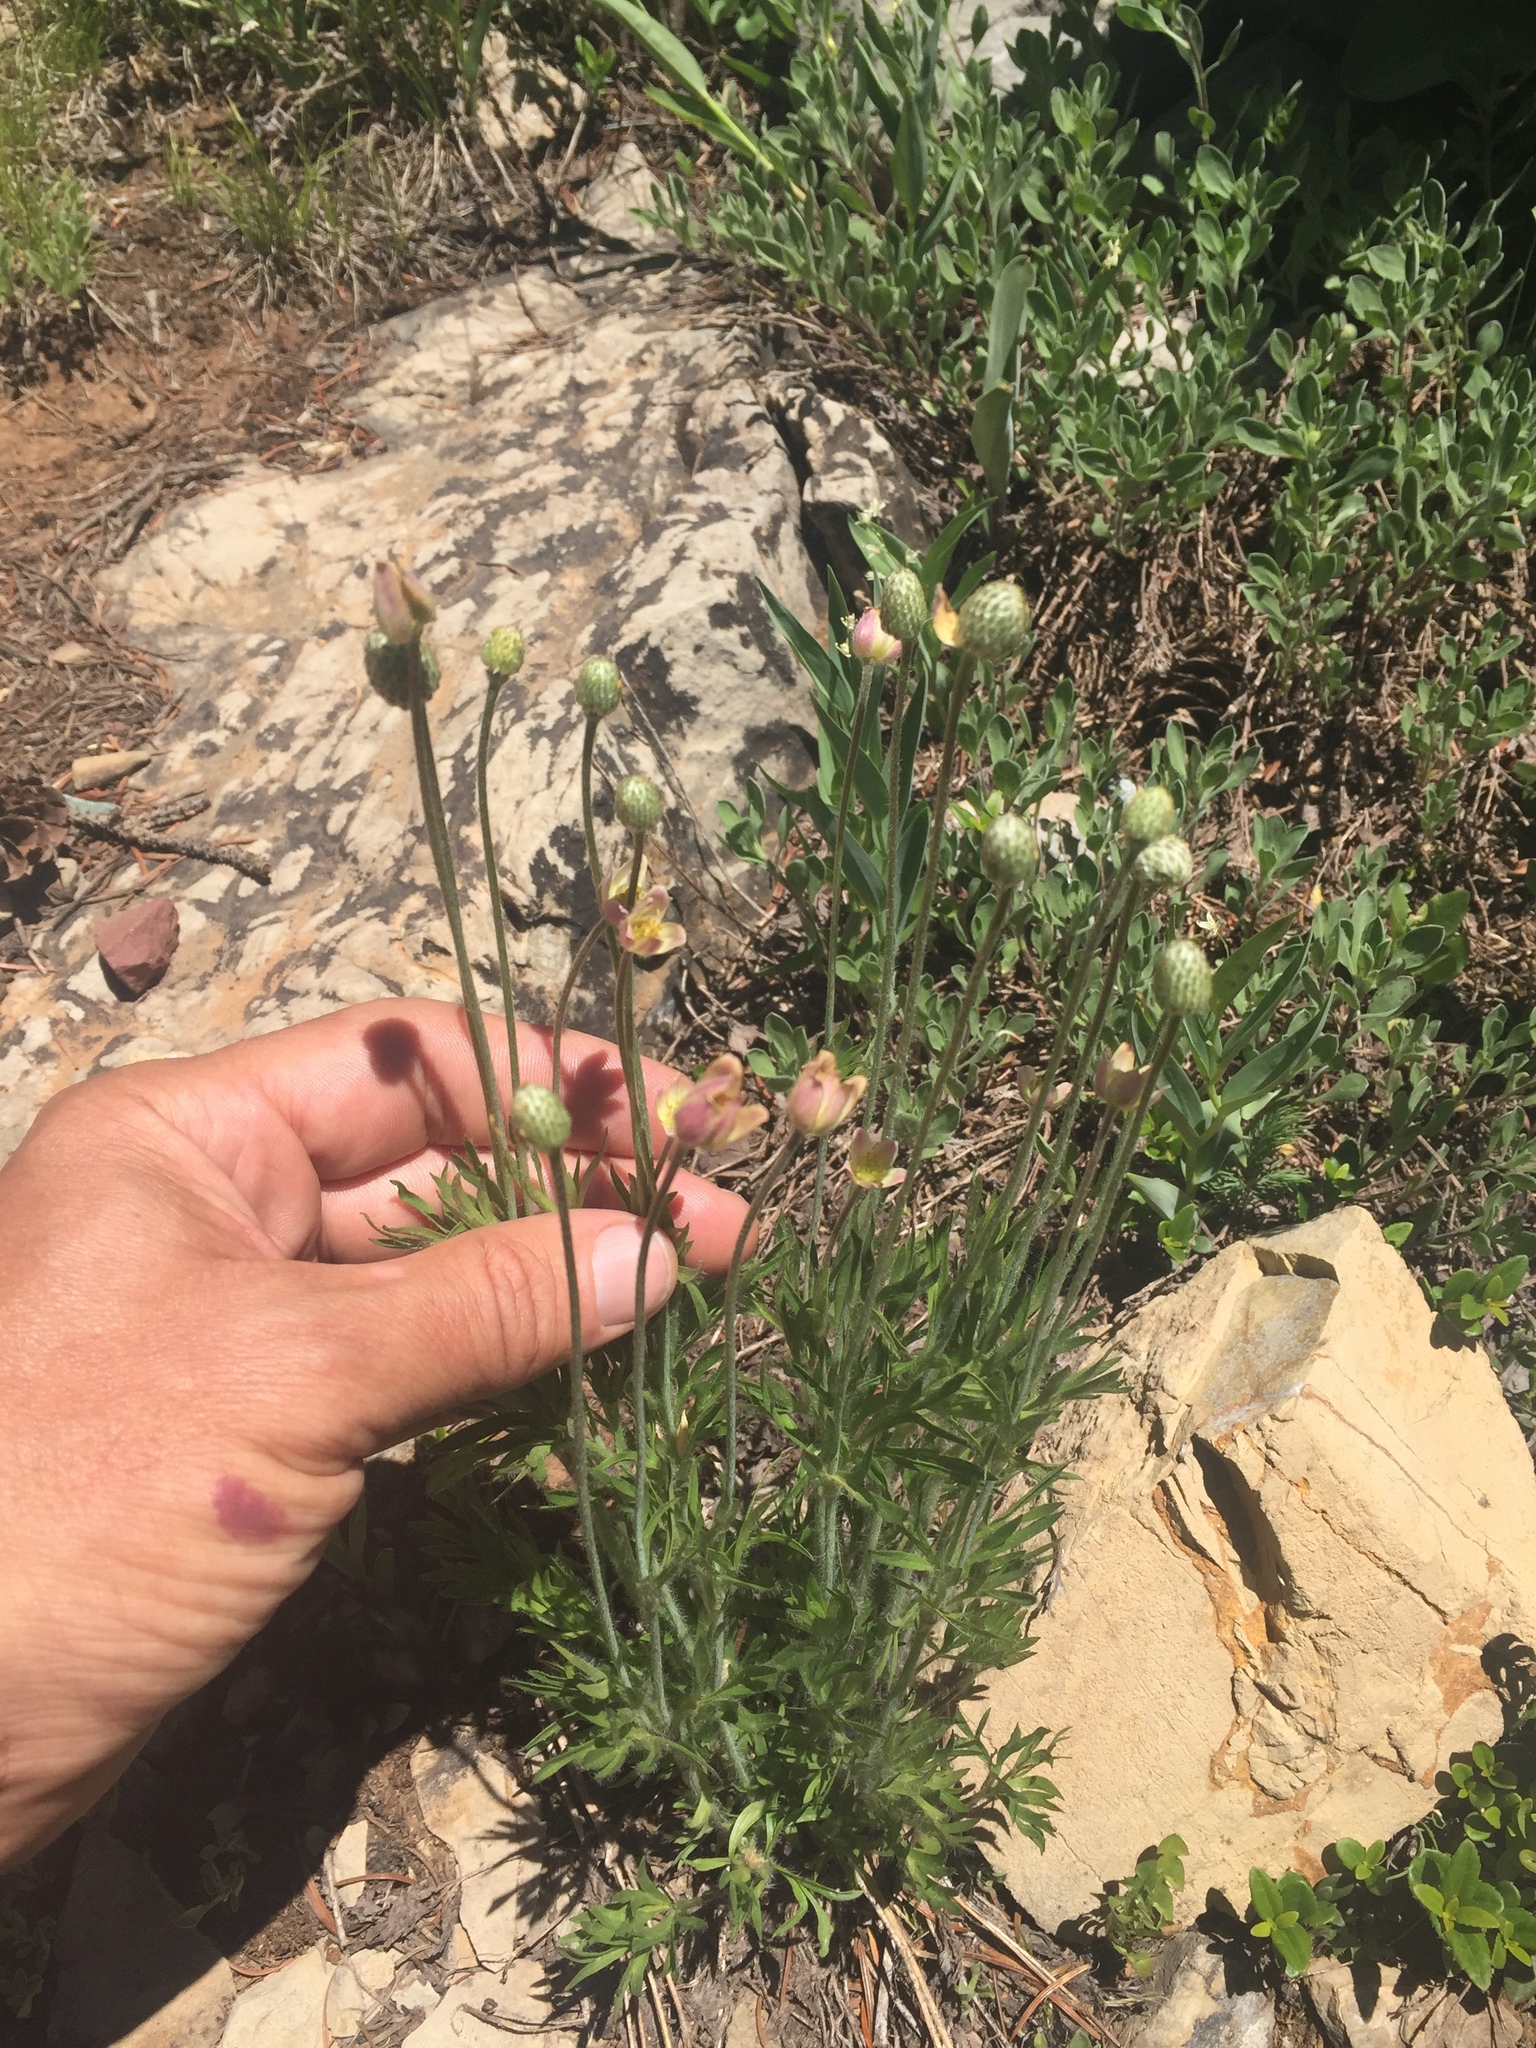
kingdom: Plantae
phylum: Tracheophyta
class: Magnoliopsida
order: Ranunculales
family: Ranunculaceae
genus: Anemone
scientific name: Anemone multifida
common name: Bird's-foot anemone
